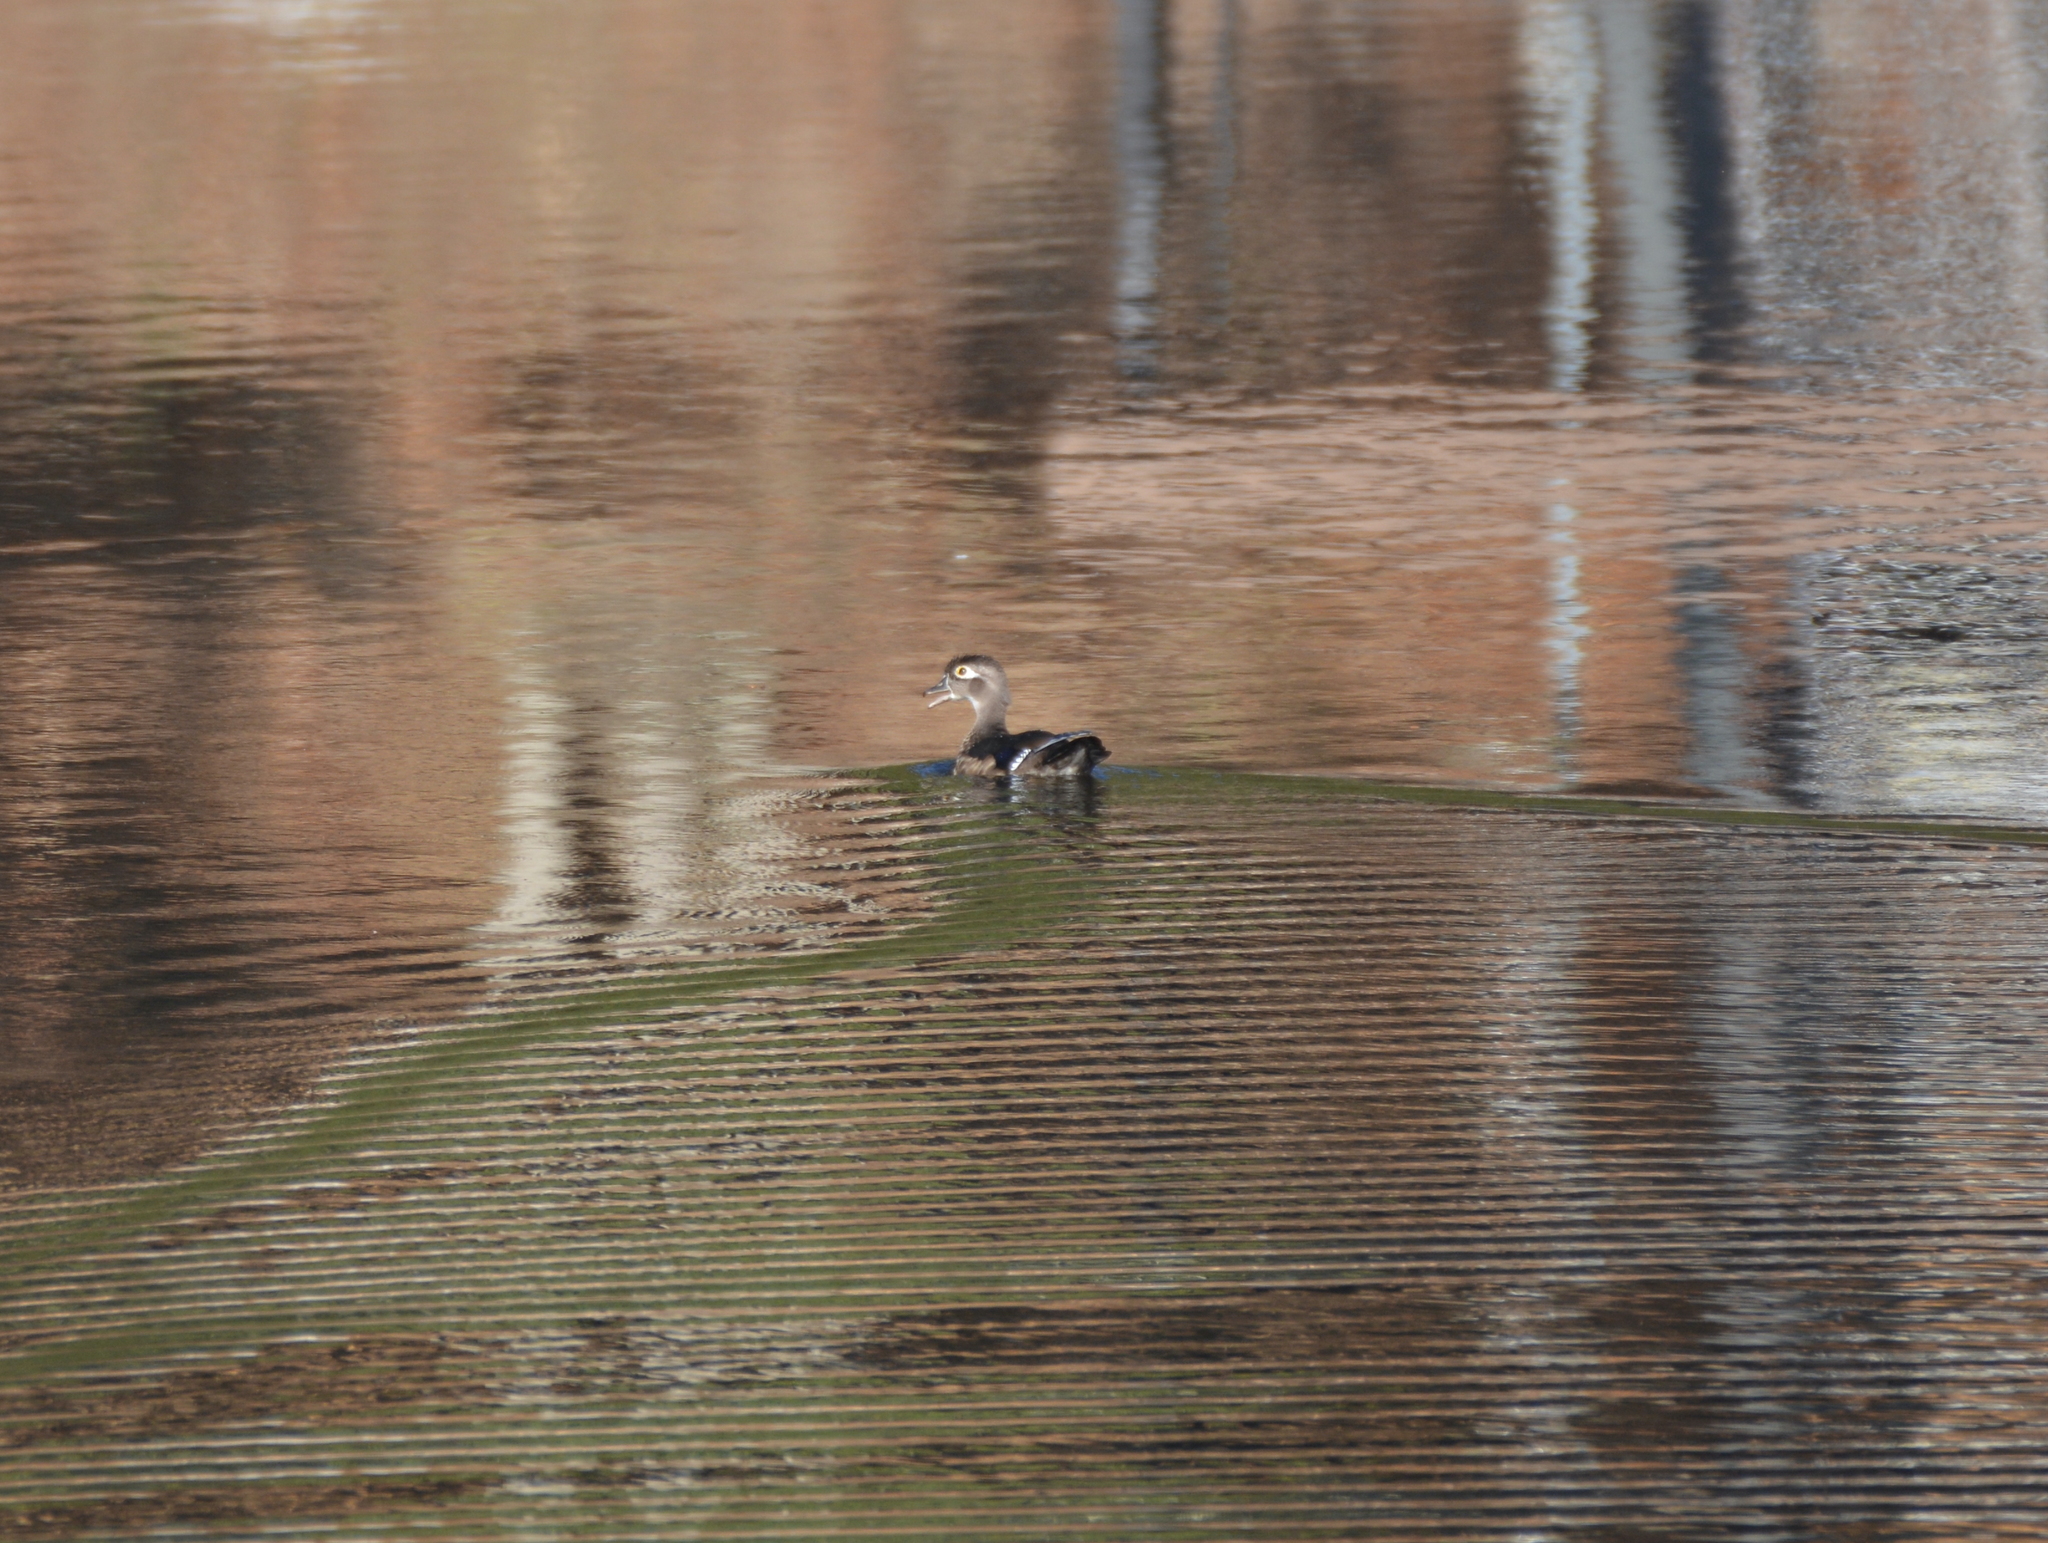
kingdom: Animalia
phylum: Chordata
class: Aves
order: Anseriformes
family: Anatidae
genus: Aix
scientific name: Aix sponsa
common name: Wood duck
